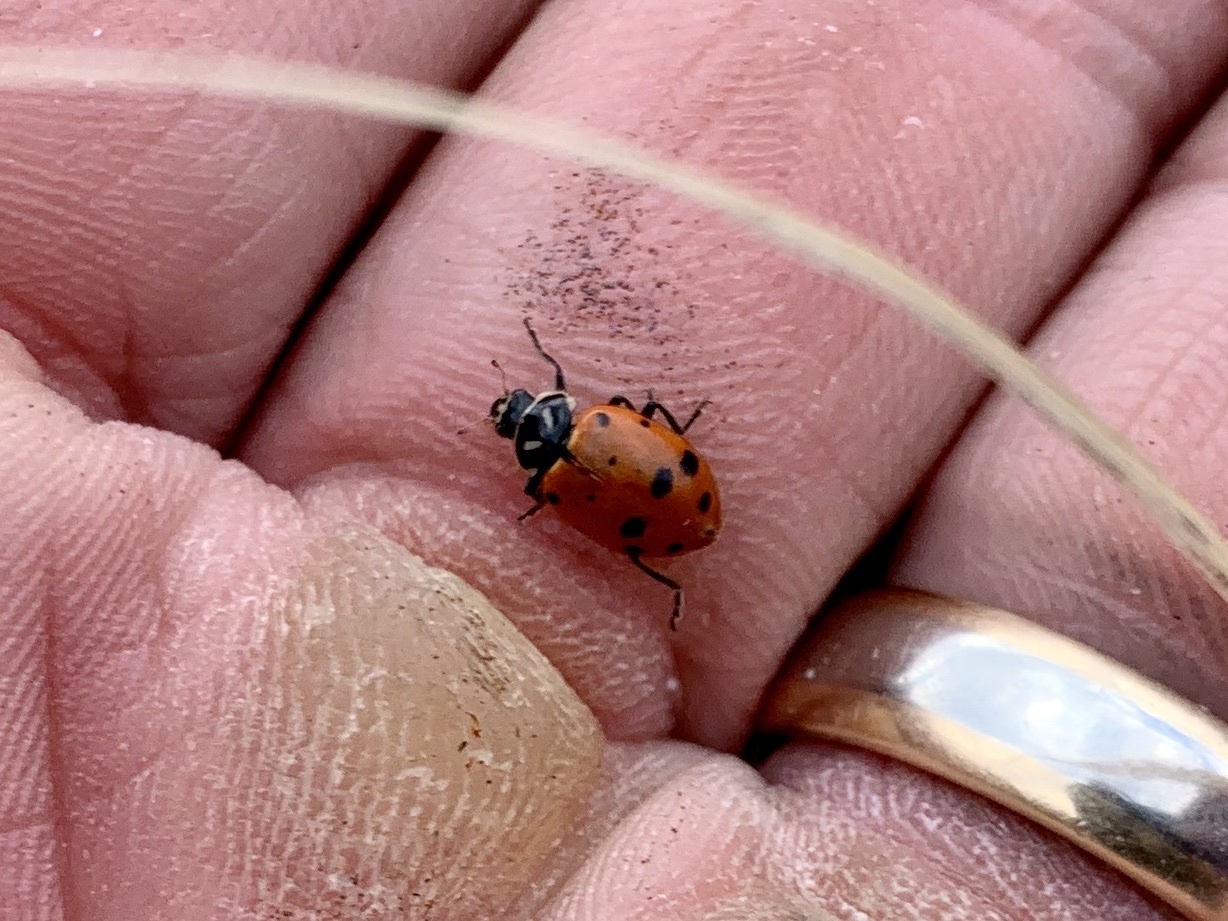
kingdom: Animalia
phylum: Arthropoda
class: Insecta
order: Coleoptera
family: Coccinellidae
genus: Hippodamia
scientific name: Hippodamia convergens
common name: Convergent lady beetle
